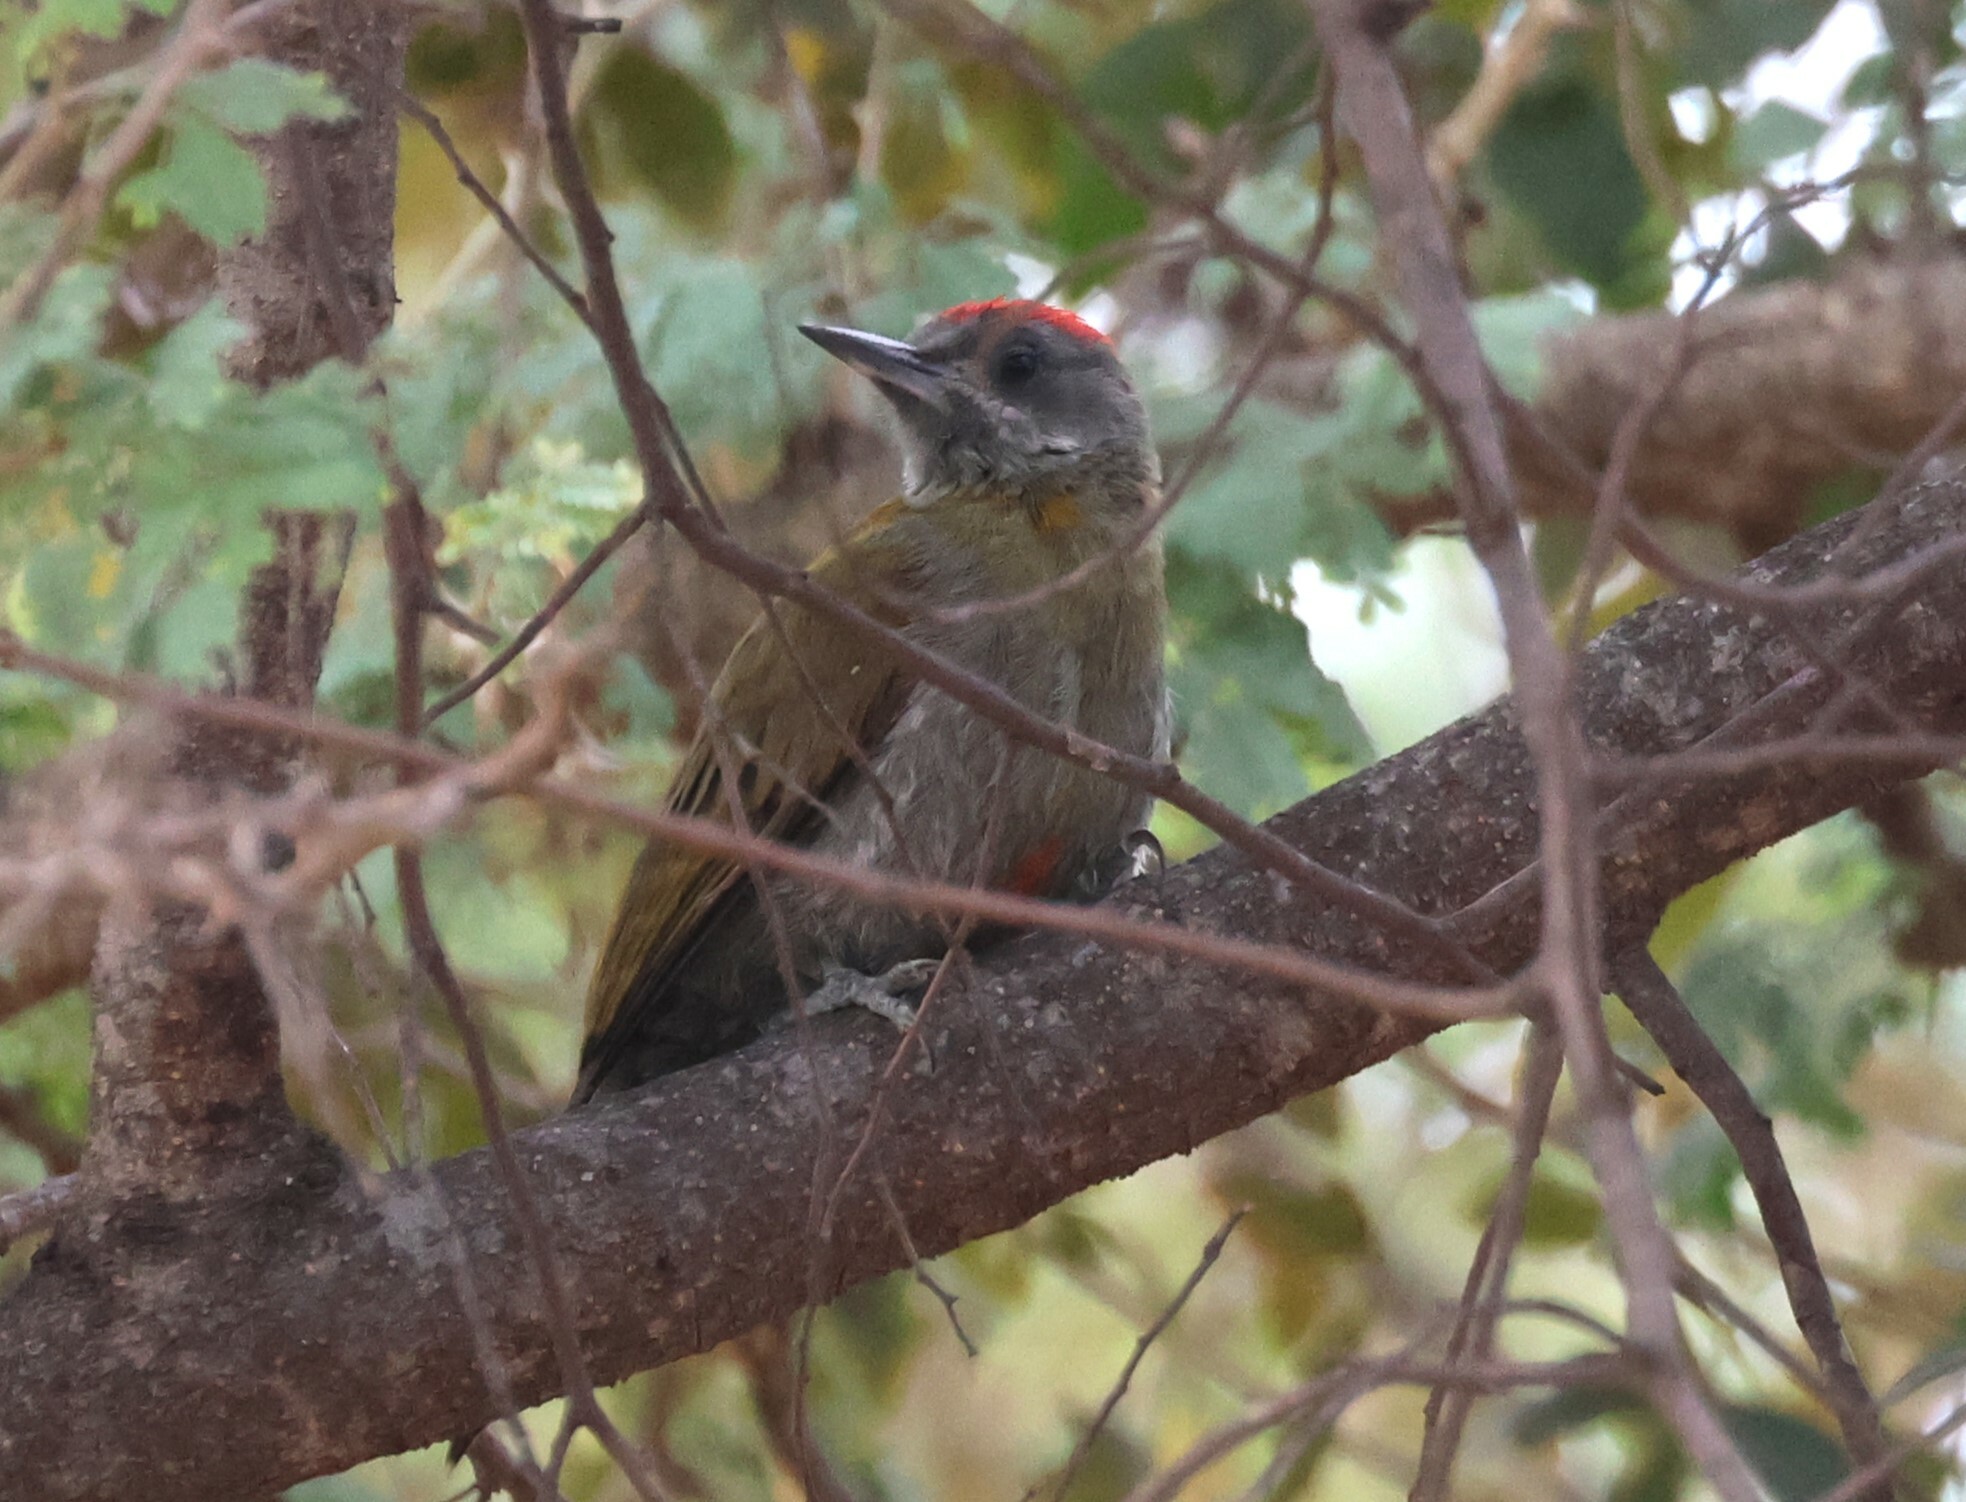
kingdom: Animalia
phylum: Chordata
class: Aves
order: Piciformes
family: Picidae
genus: Dendropicos
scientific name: Dendropicos griseocephalus
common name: Olive woodpecker
